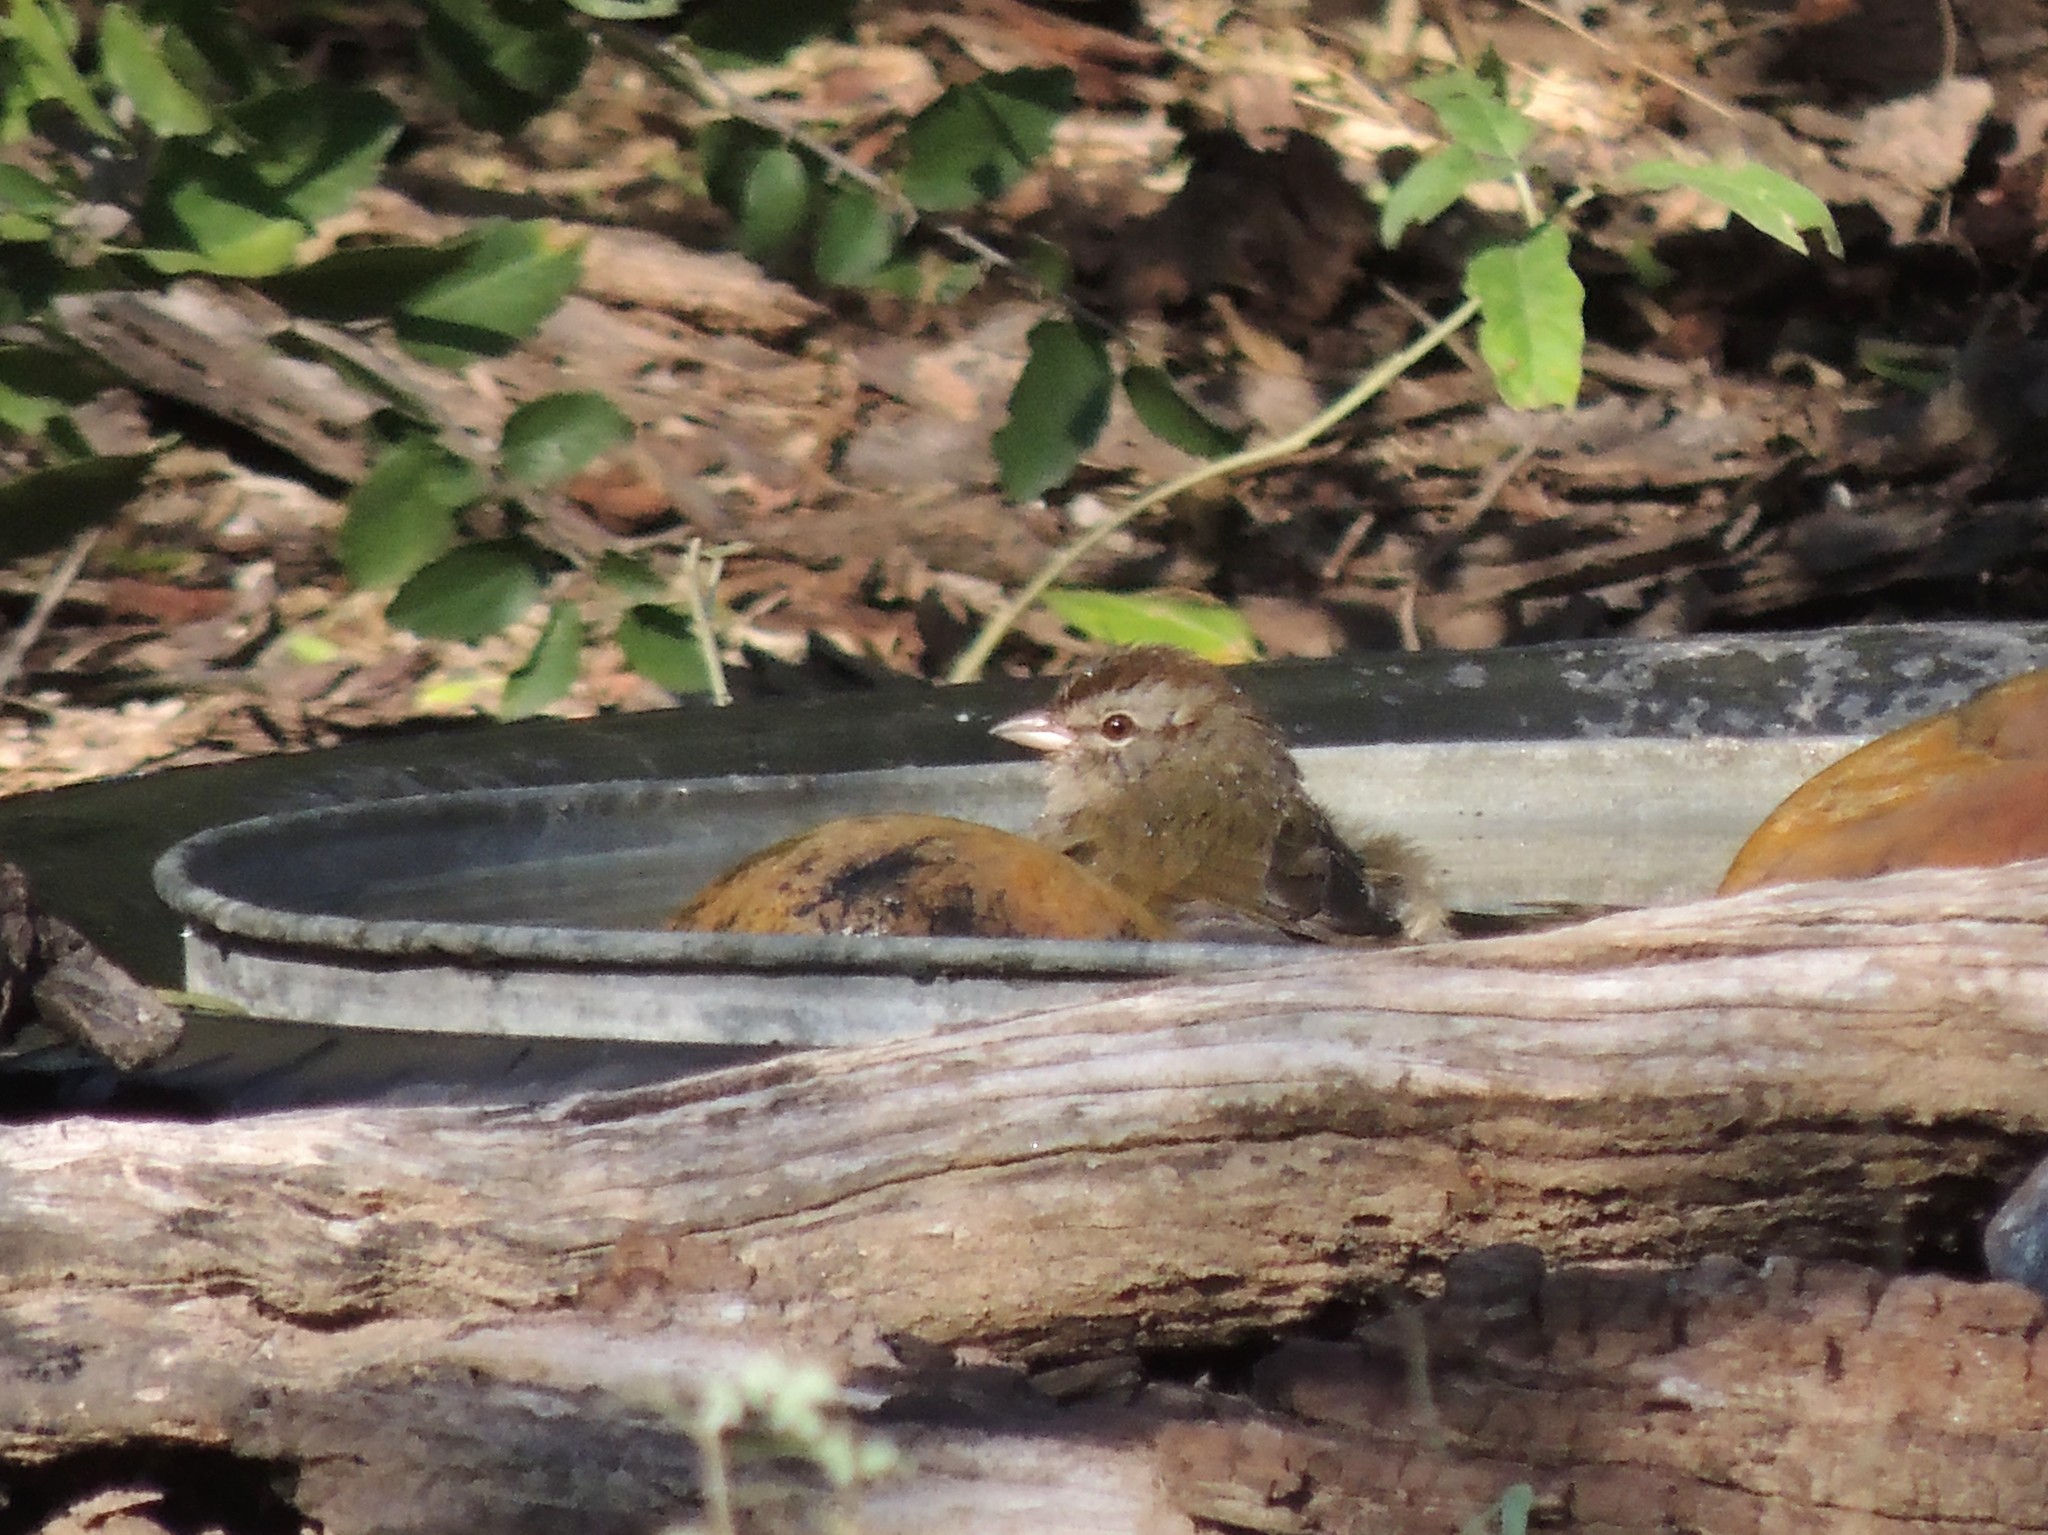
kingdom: Animalia
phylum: Chordata
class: Aves
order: Passeriformes
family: Passerellidae
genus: Arremonops
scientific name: Arremonops rufivirgatus
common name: Olive sparrow
